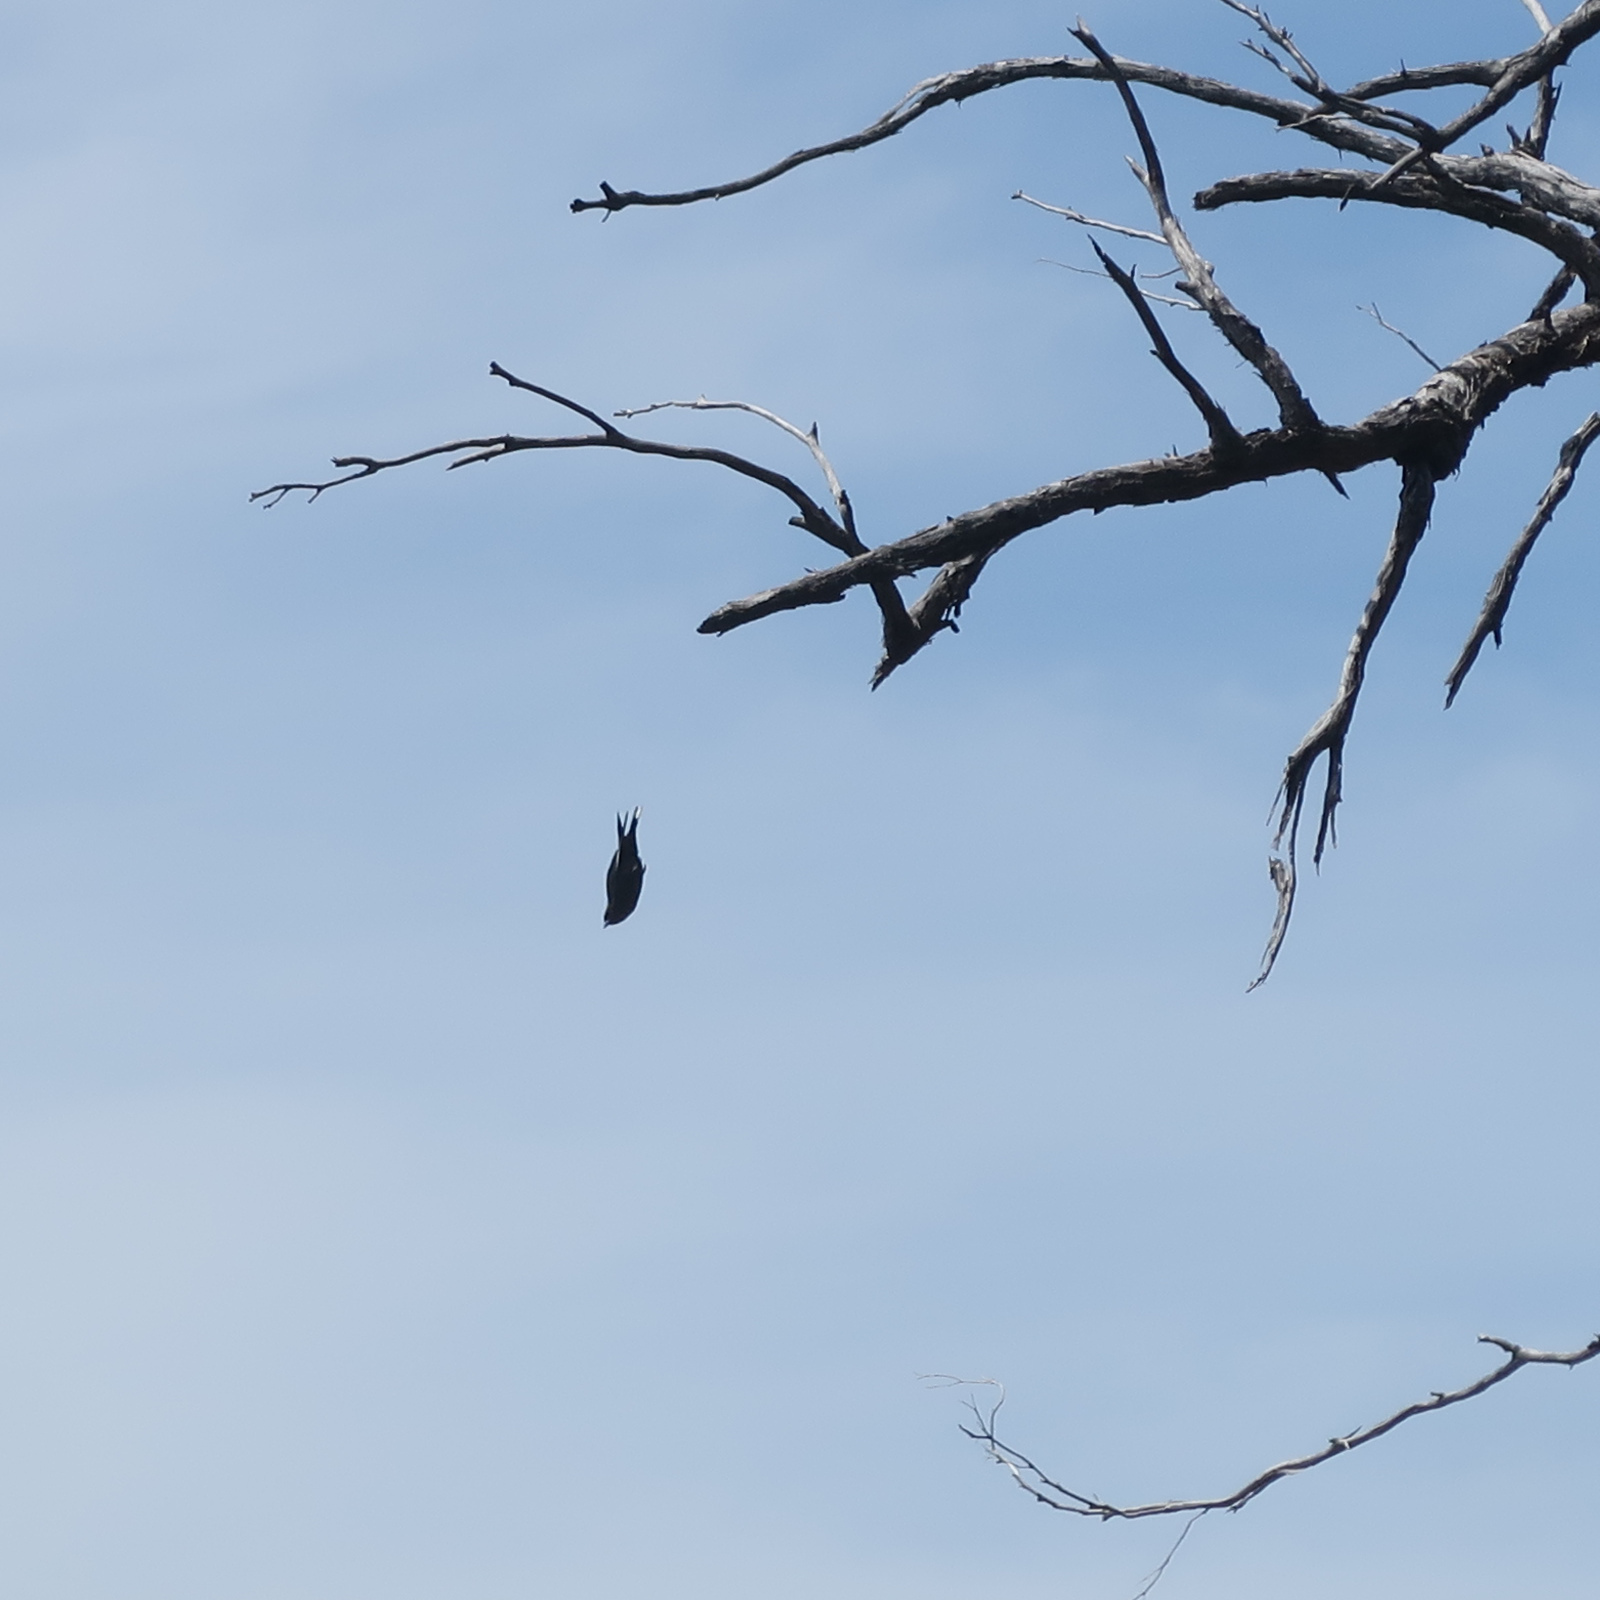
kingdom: Animalia
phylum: Chordata
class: Aves
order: Passeriformes
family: Artamidae
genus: Artamus
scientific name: Artamus cyanopterus
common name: Dusky woodswallow
